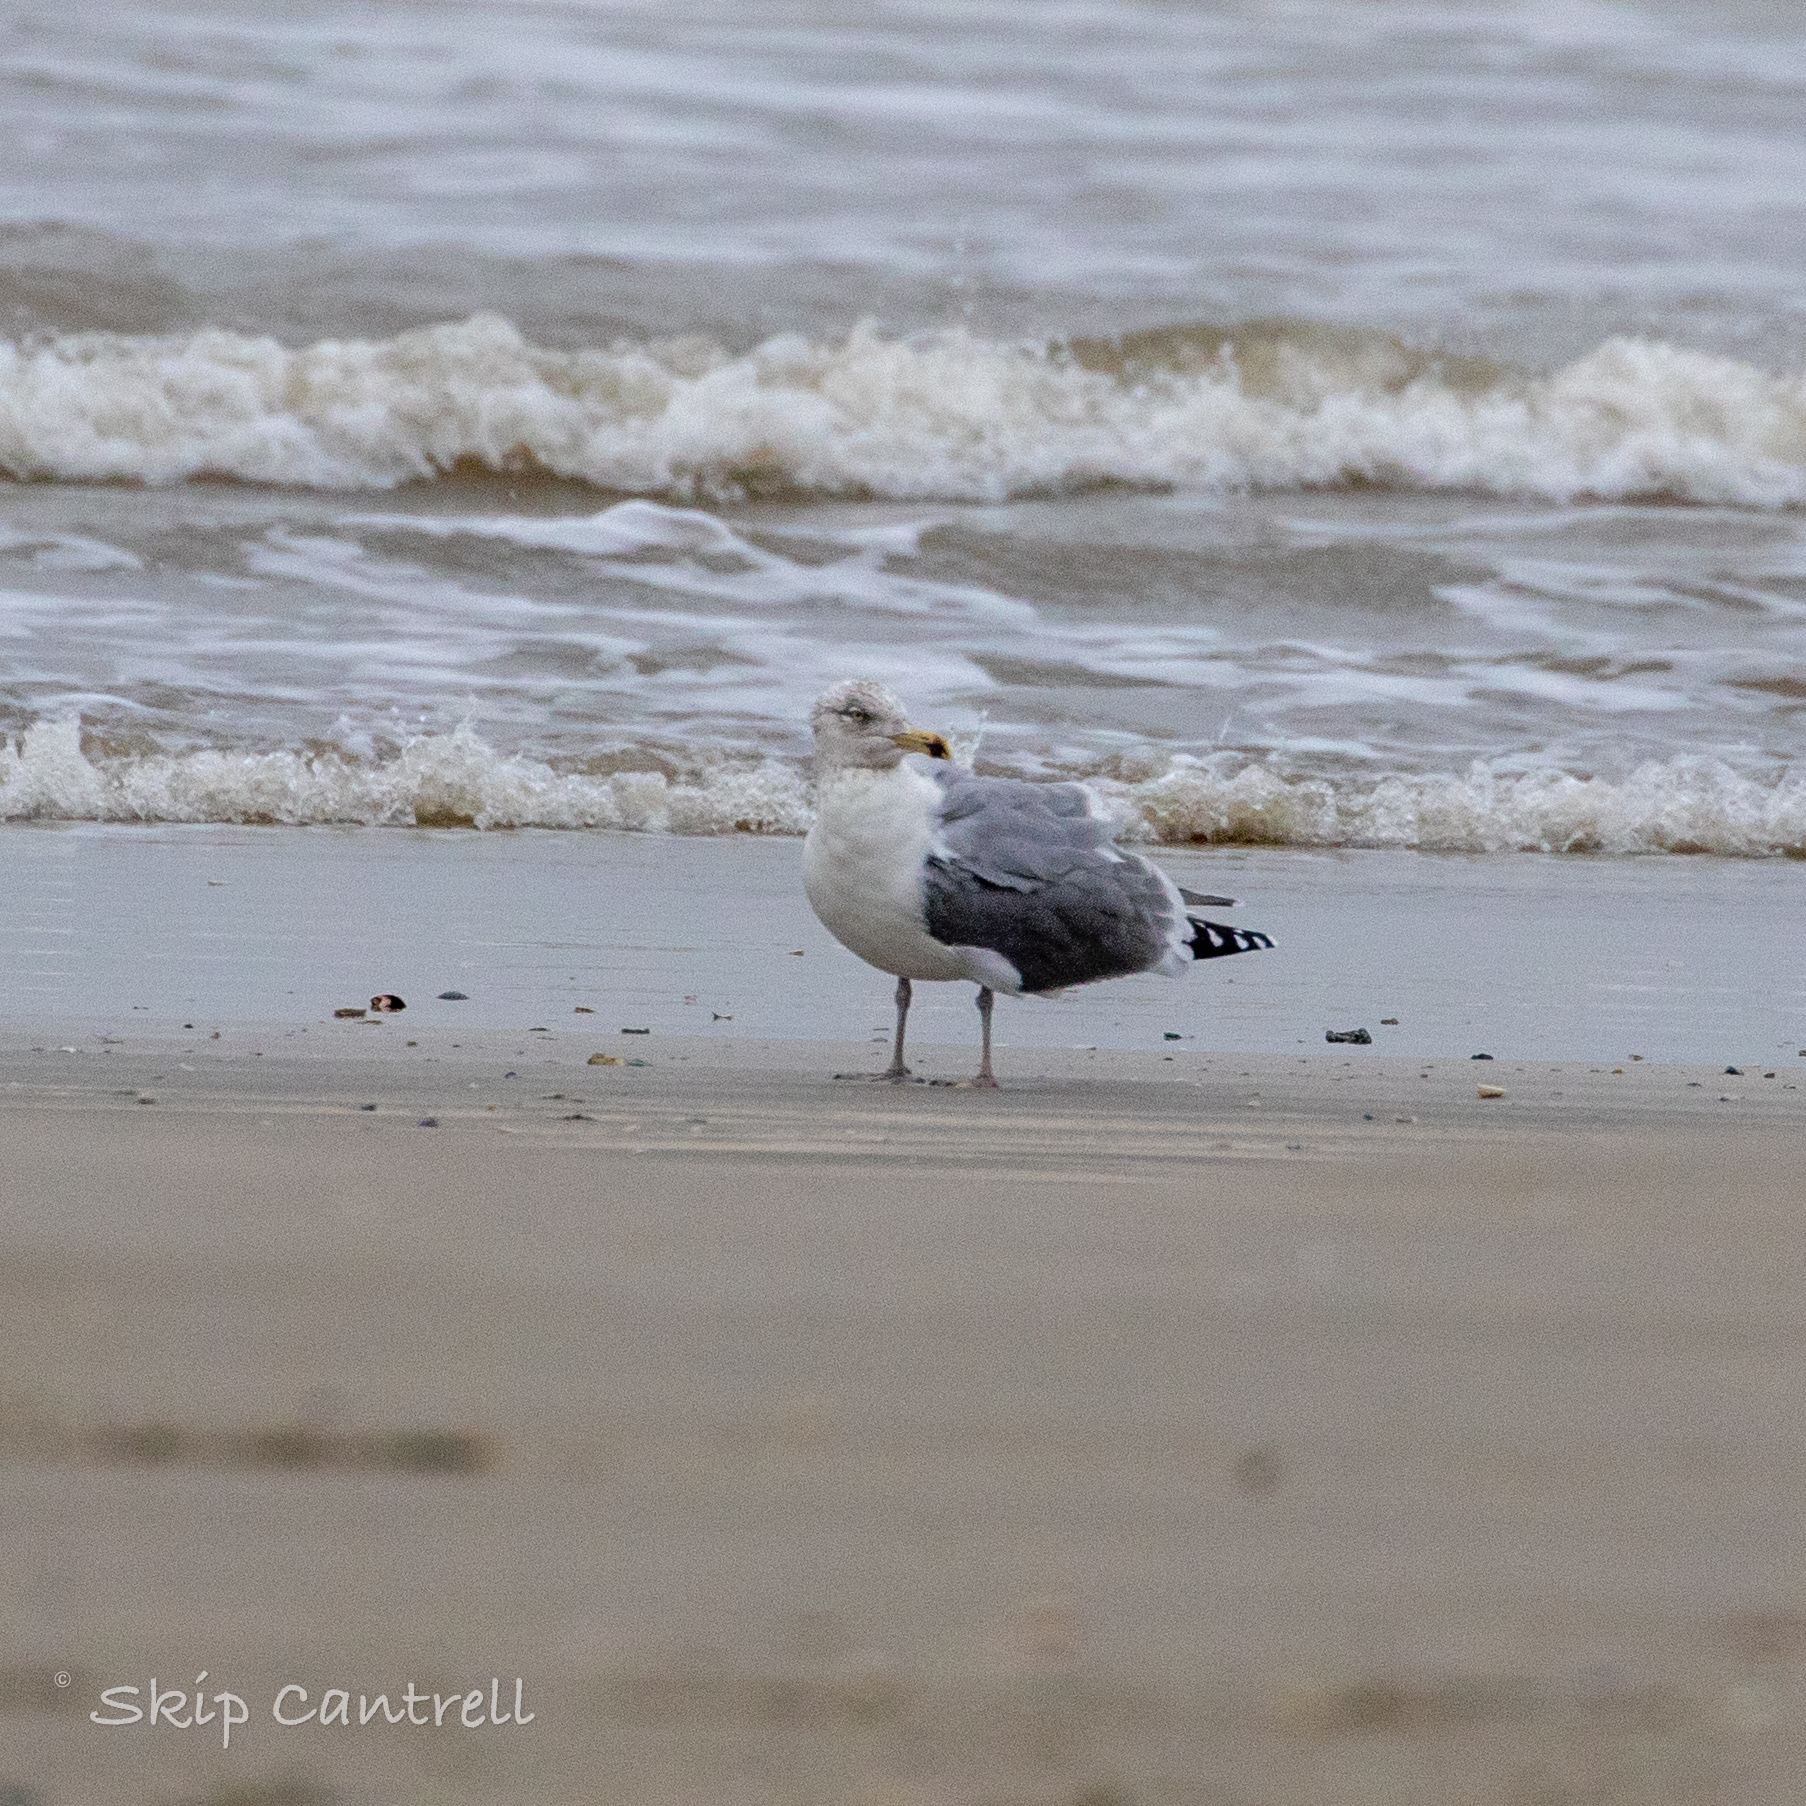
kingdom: Animalia
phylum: Chordata
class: Aves
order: Charadriiformes
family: Laridae
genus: Larus
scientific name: Larus argentatus
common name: Herring gull
